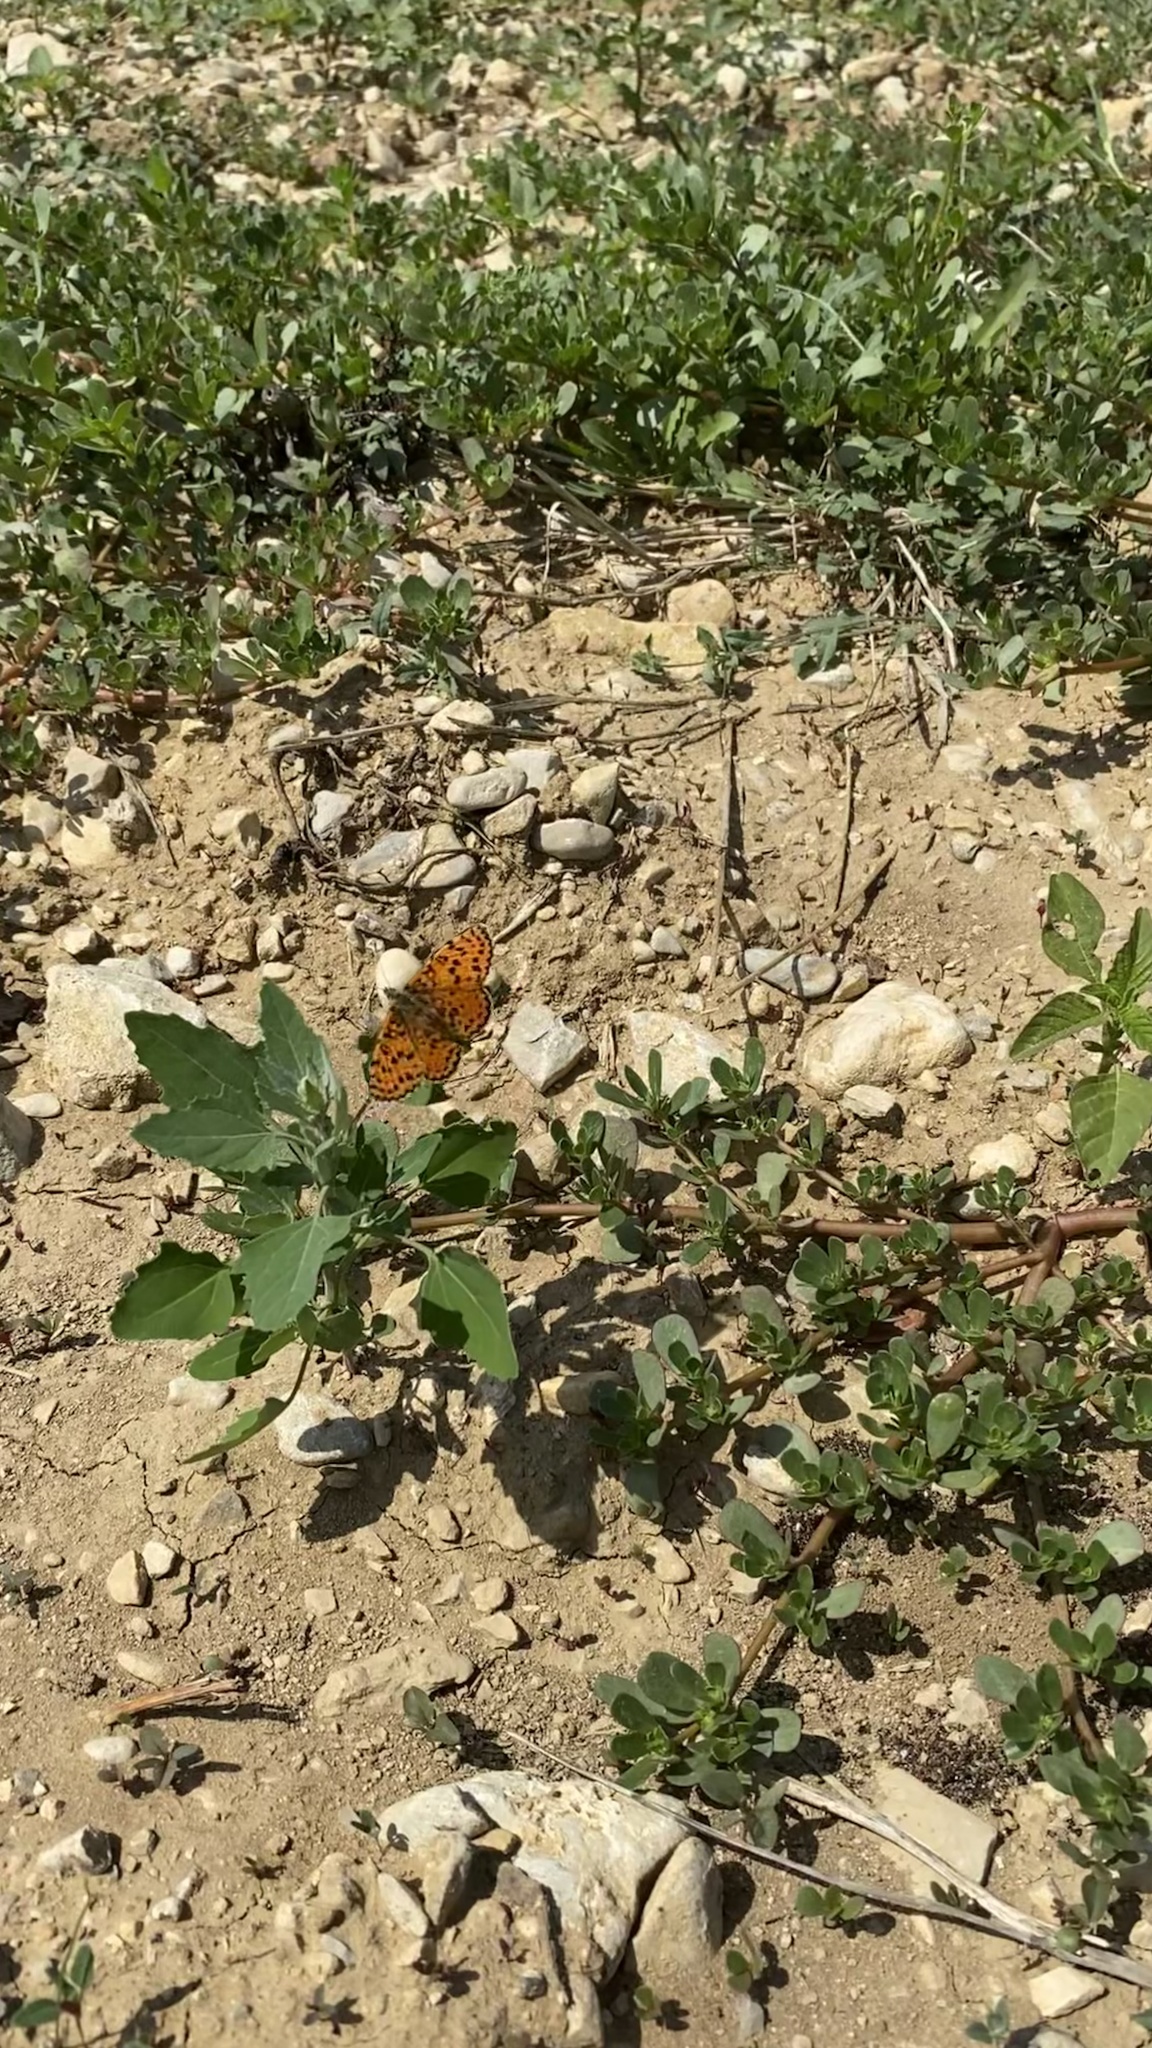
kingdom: Animalia
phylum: Arthropoda
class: Insecta
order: Lepidoptera
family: Nymphalidae
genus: Melitaea
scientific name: Melitaea didyma
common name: Spotted fritillary
